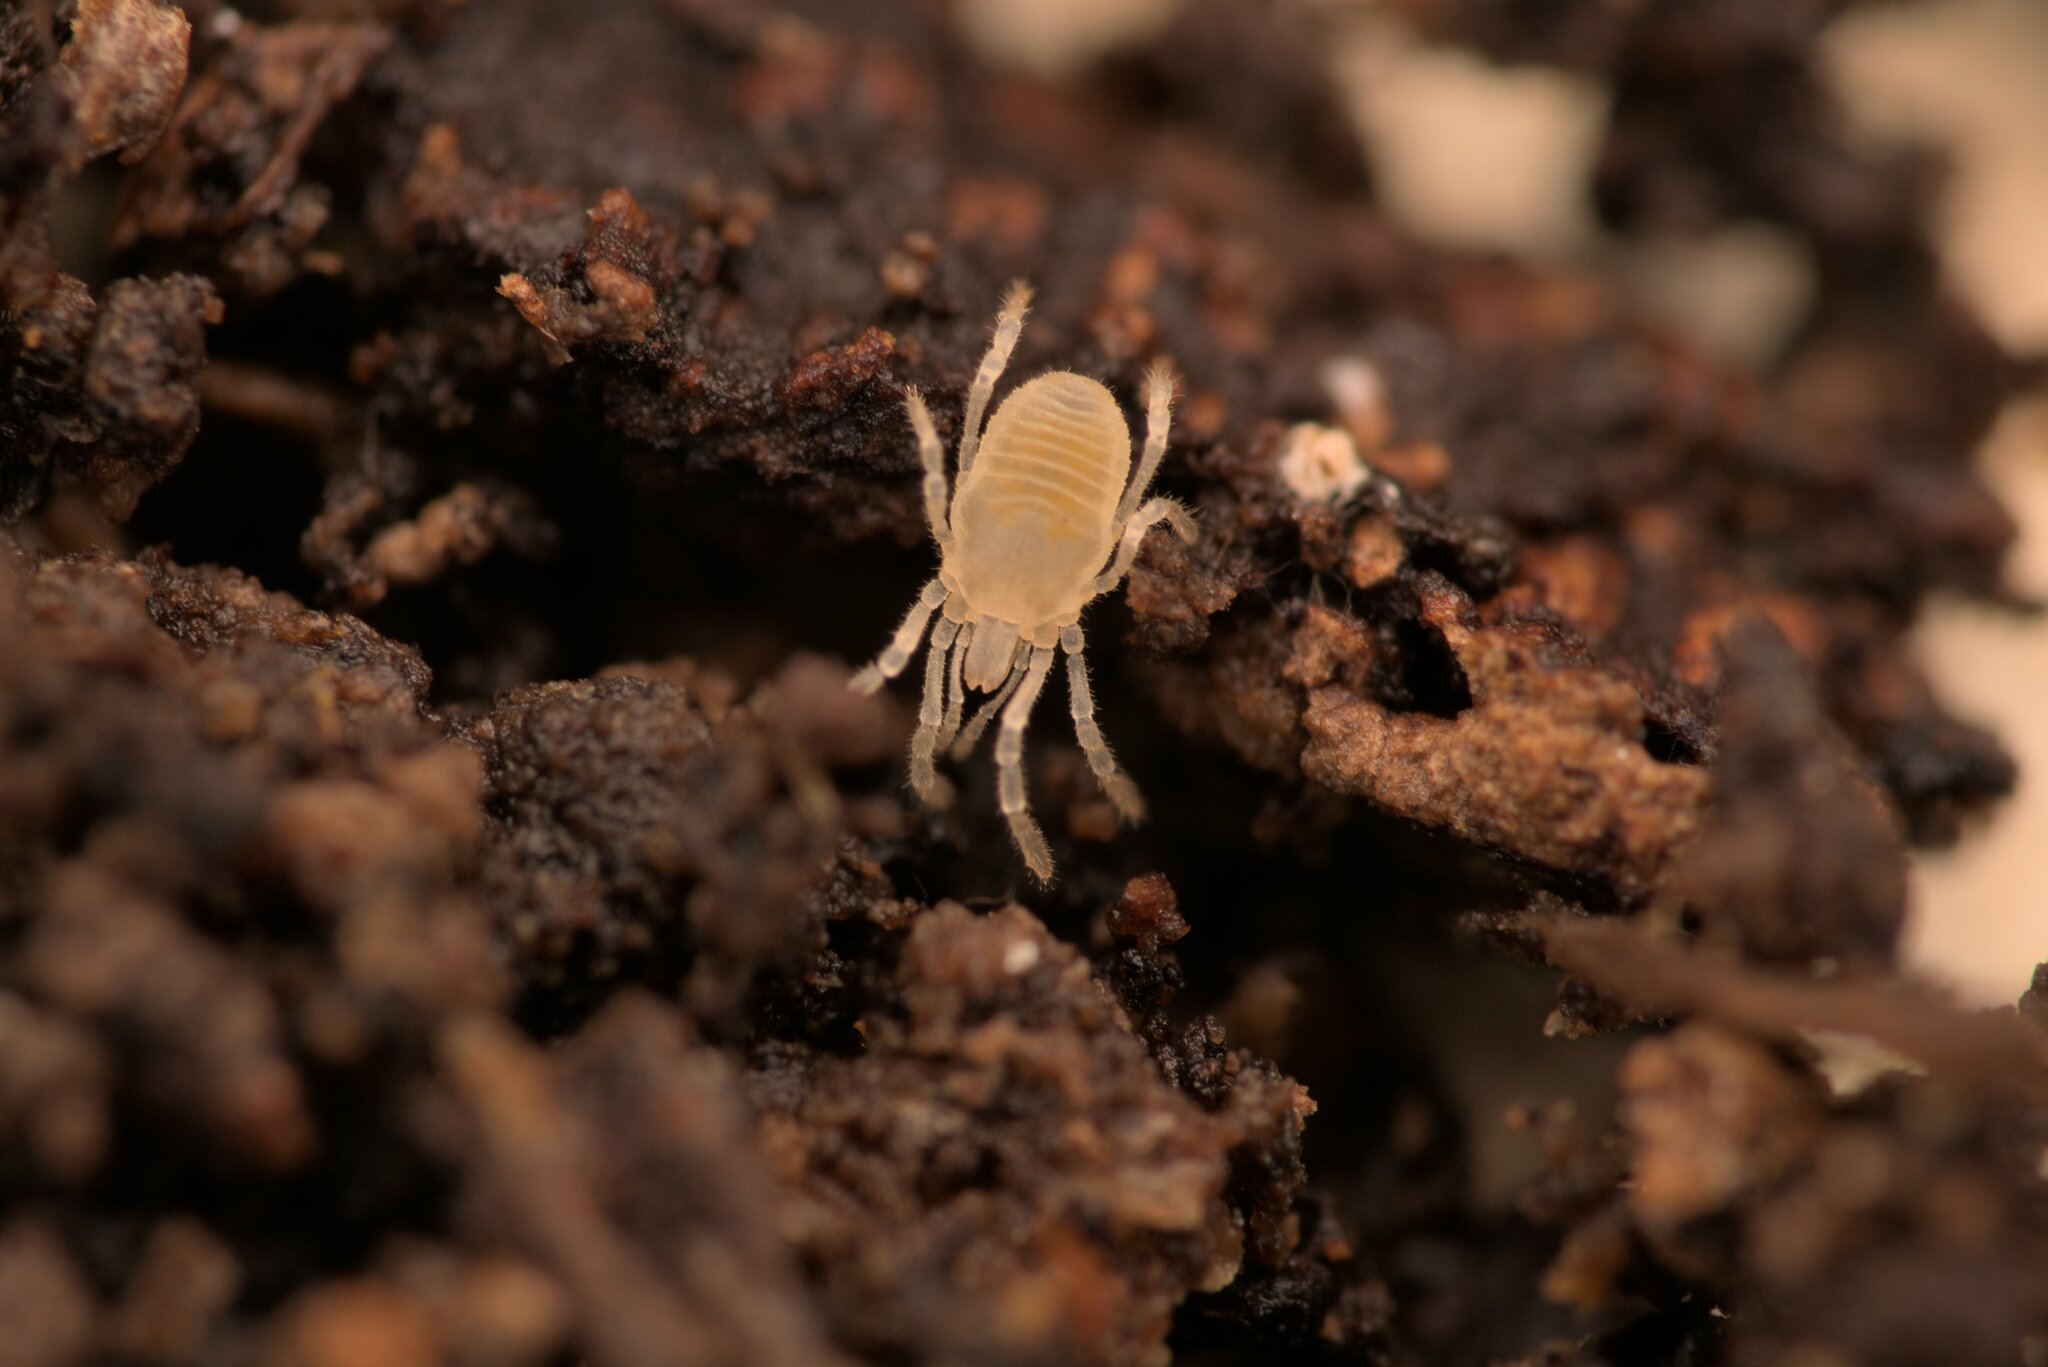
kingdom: Animalia
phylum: Arthropoda
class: Arachnida
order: Opiliones
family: Sironidae
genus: Siro
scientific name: Siro rubens
